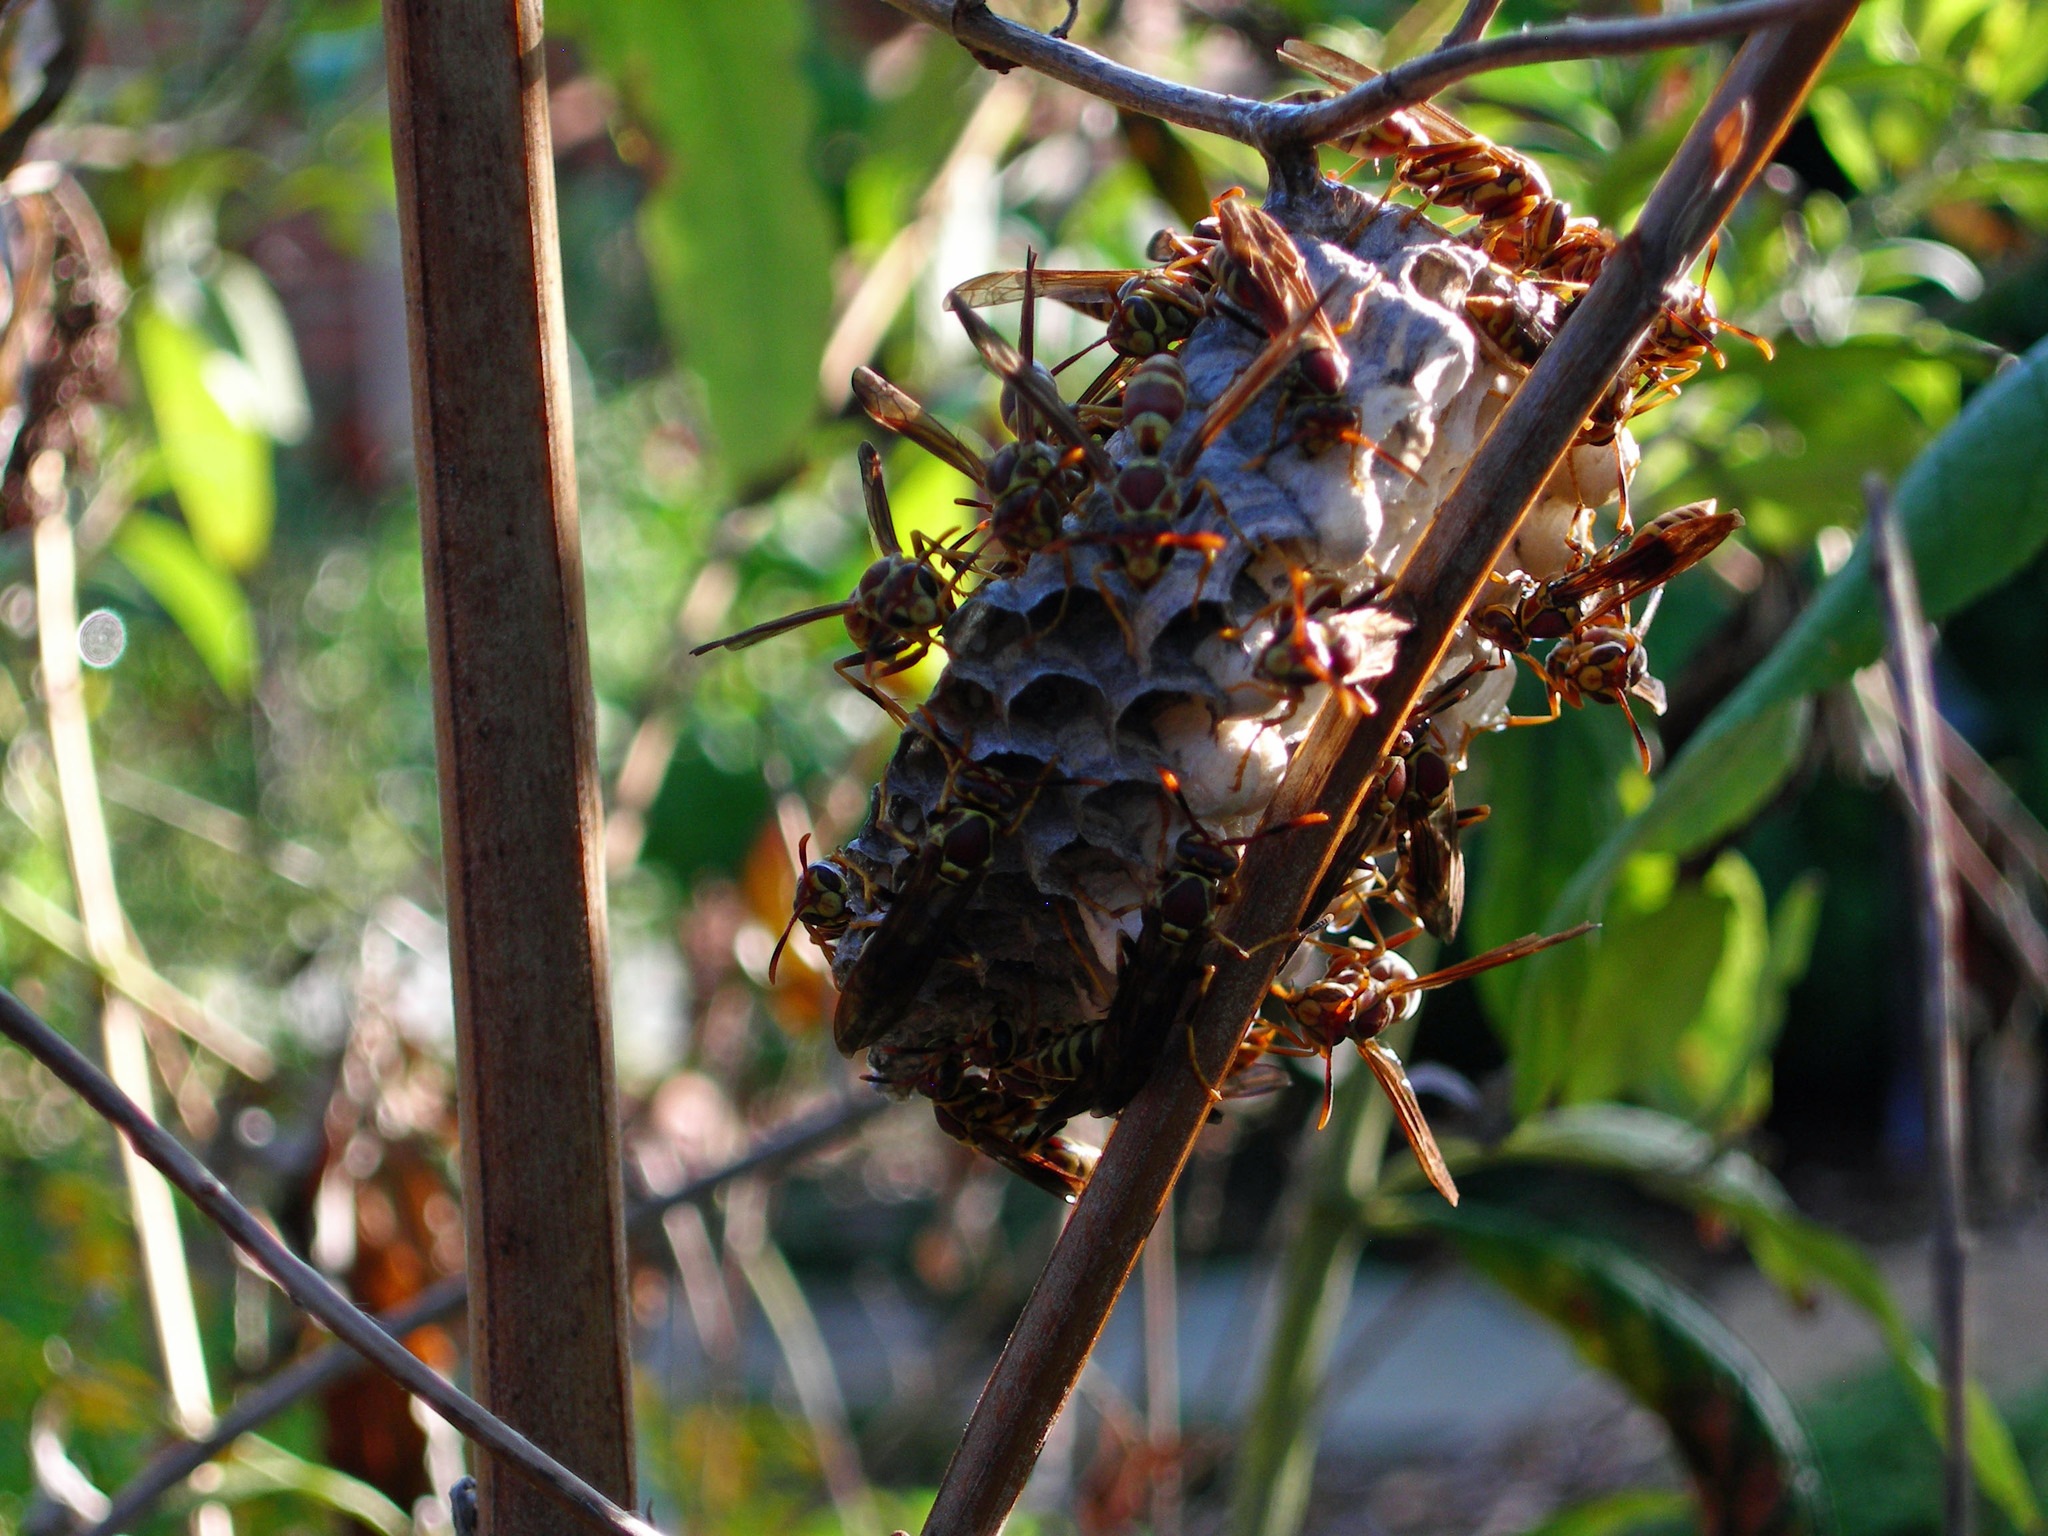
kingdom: Animalia
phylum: Arthropoda
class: Insecta
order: Hymenoptera
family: Eumenidae
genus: Polistes
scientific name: Polistes exclamans
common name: Paper wasp
